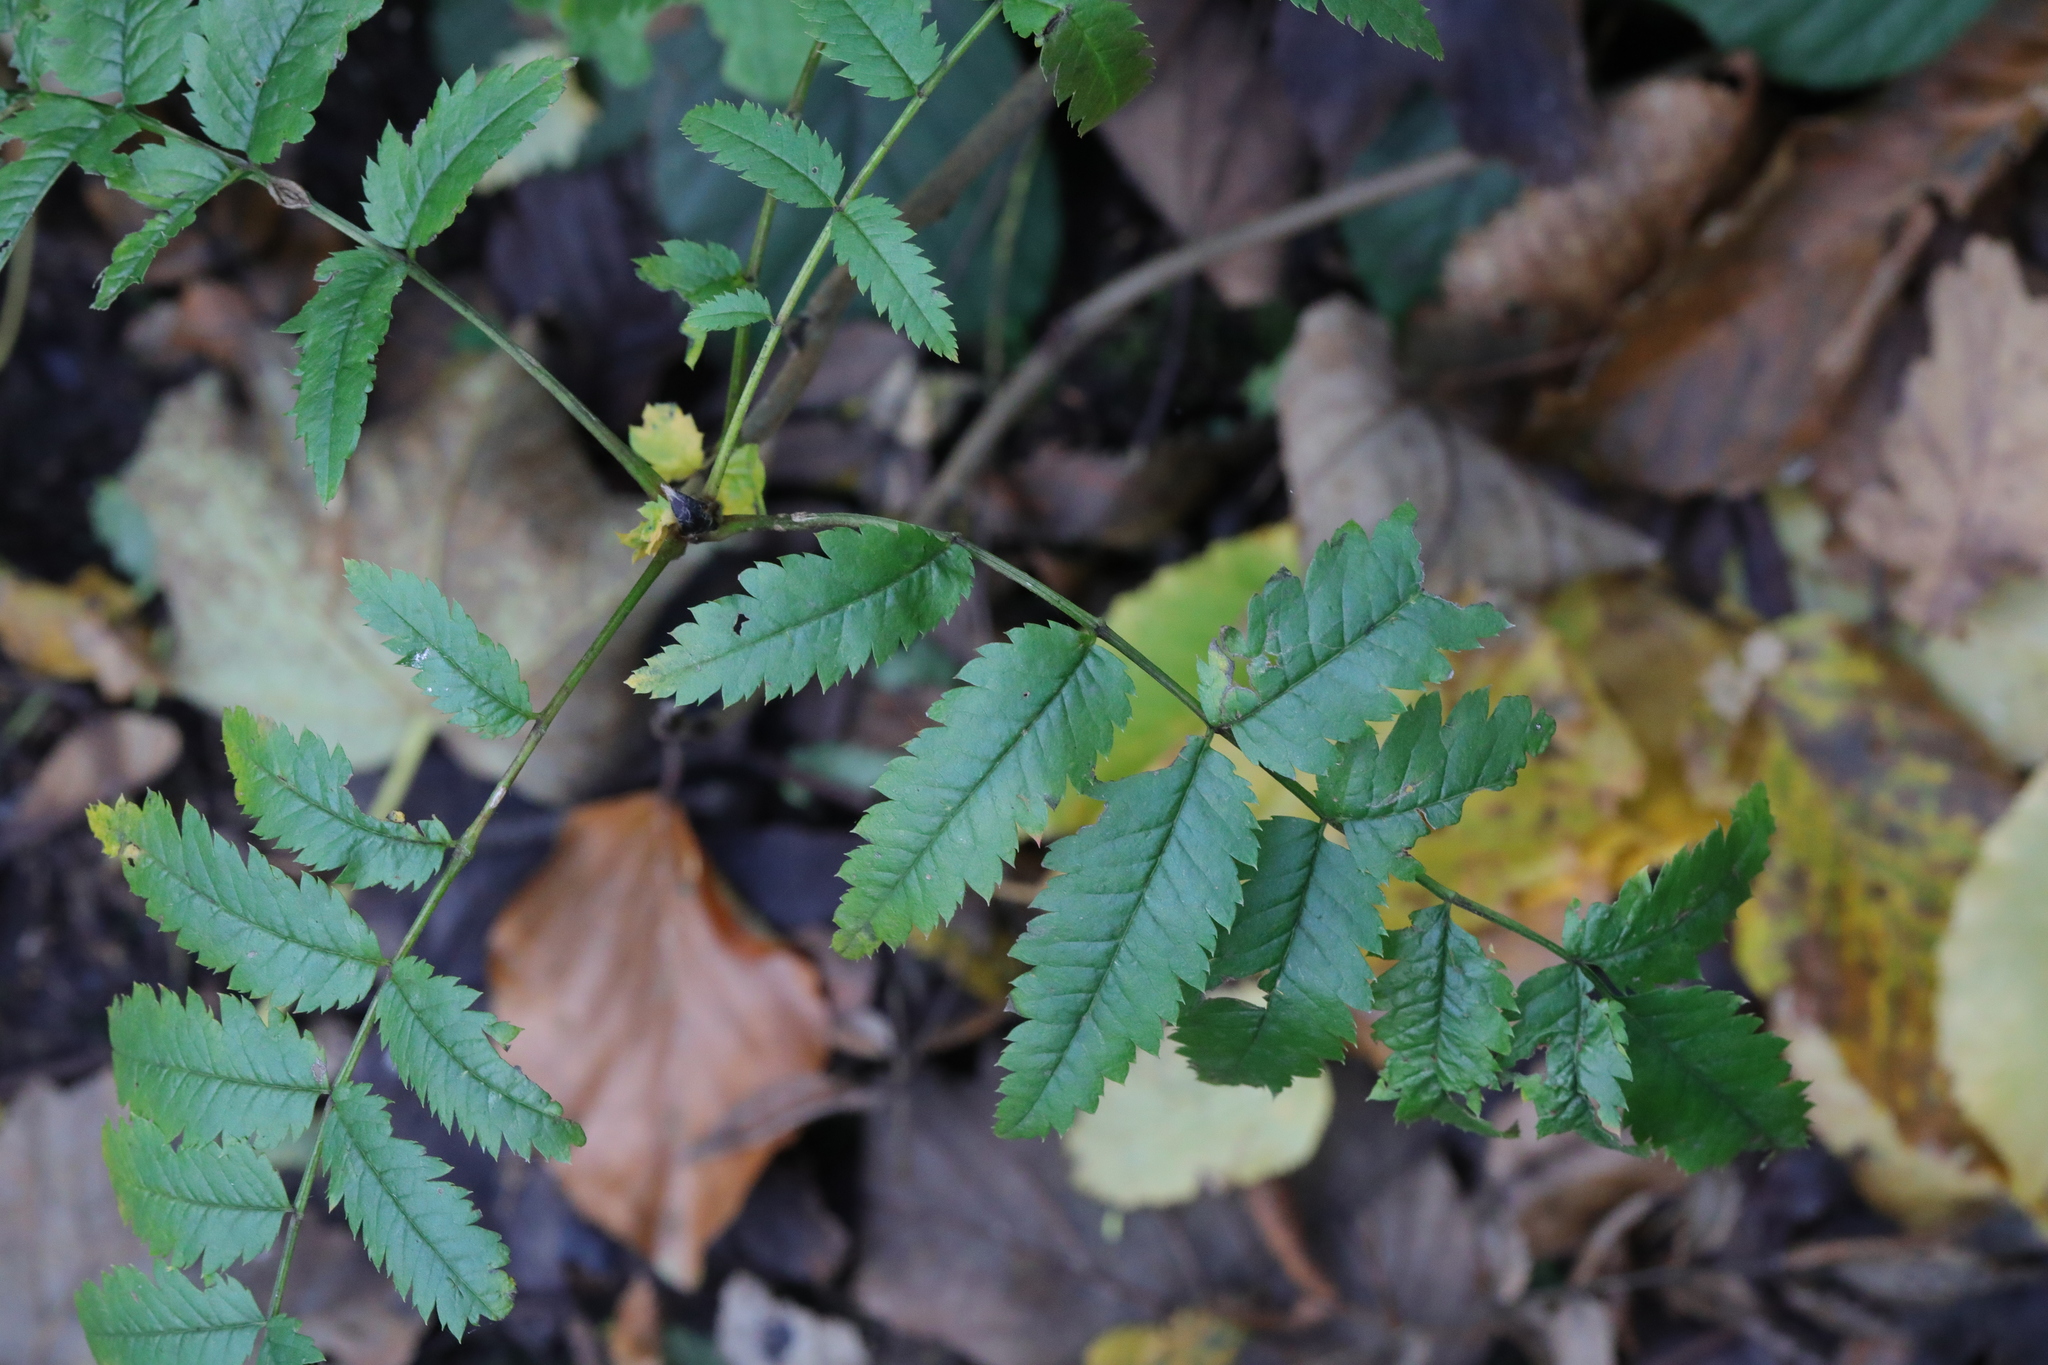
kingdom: Plantae
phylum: Tracheophyta
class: Magnoliopsida
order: Rosales
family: Rosaceae
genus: Sorbus
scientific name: Sorbus aucuparia
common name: Rowan
